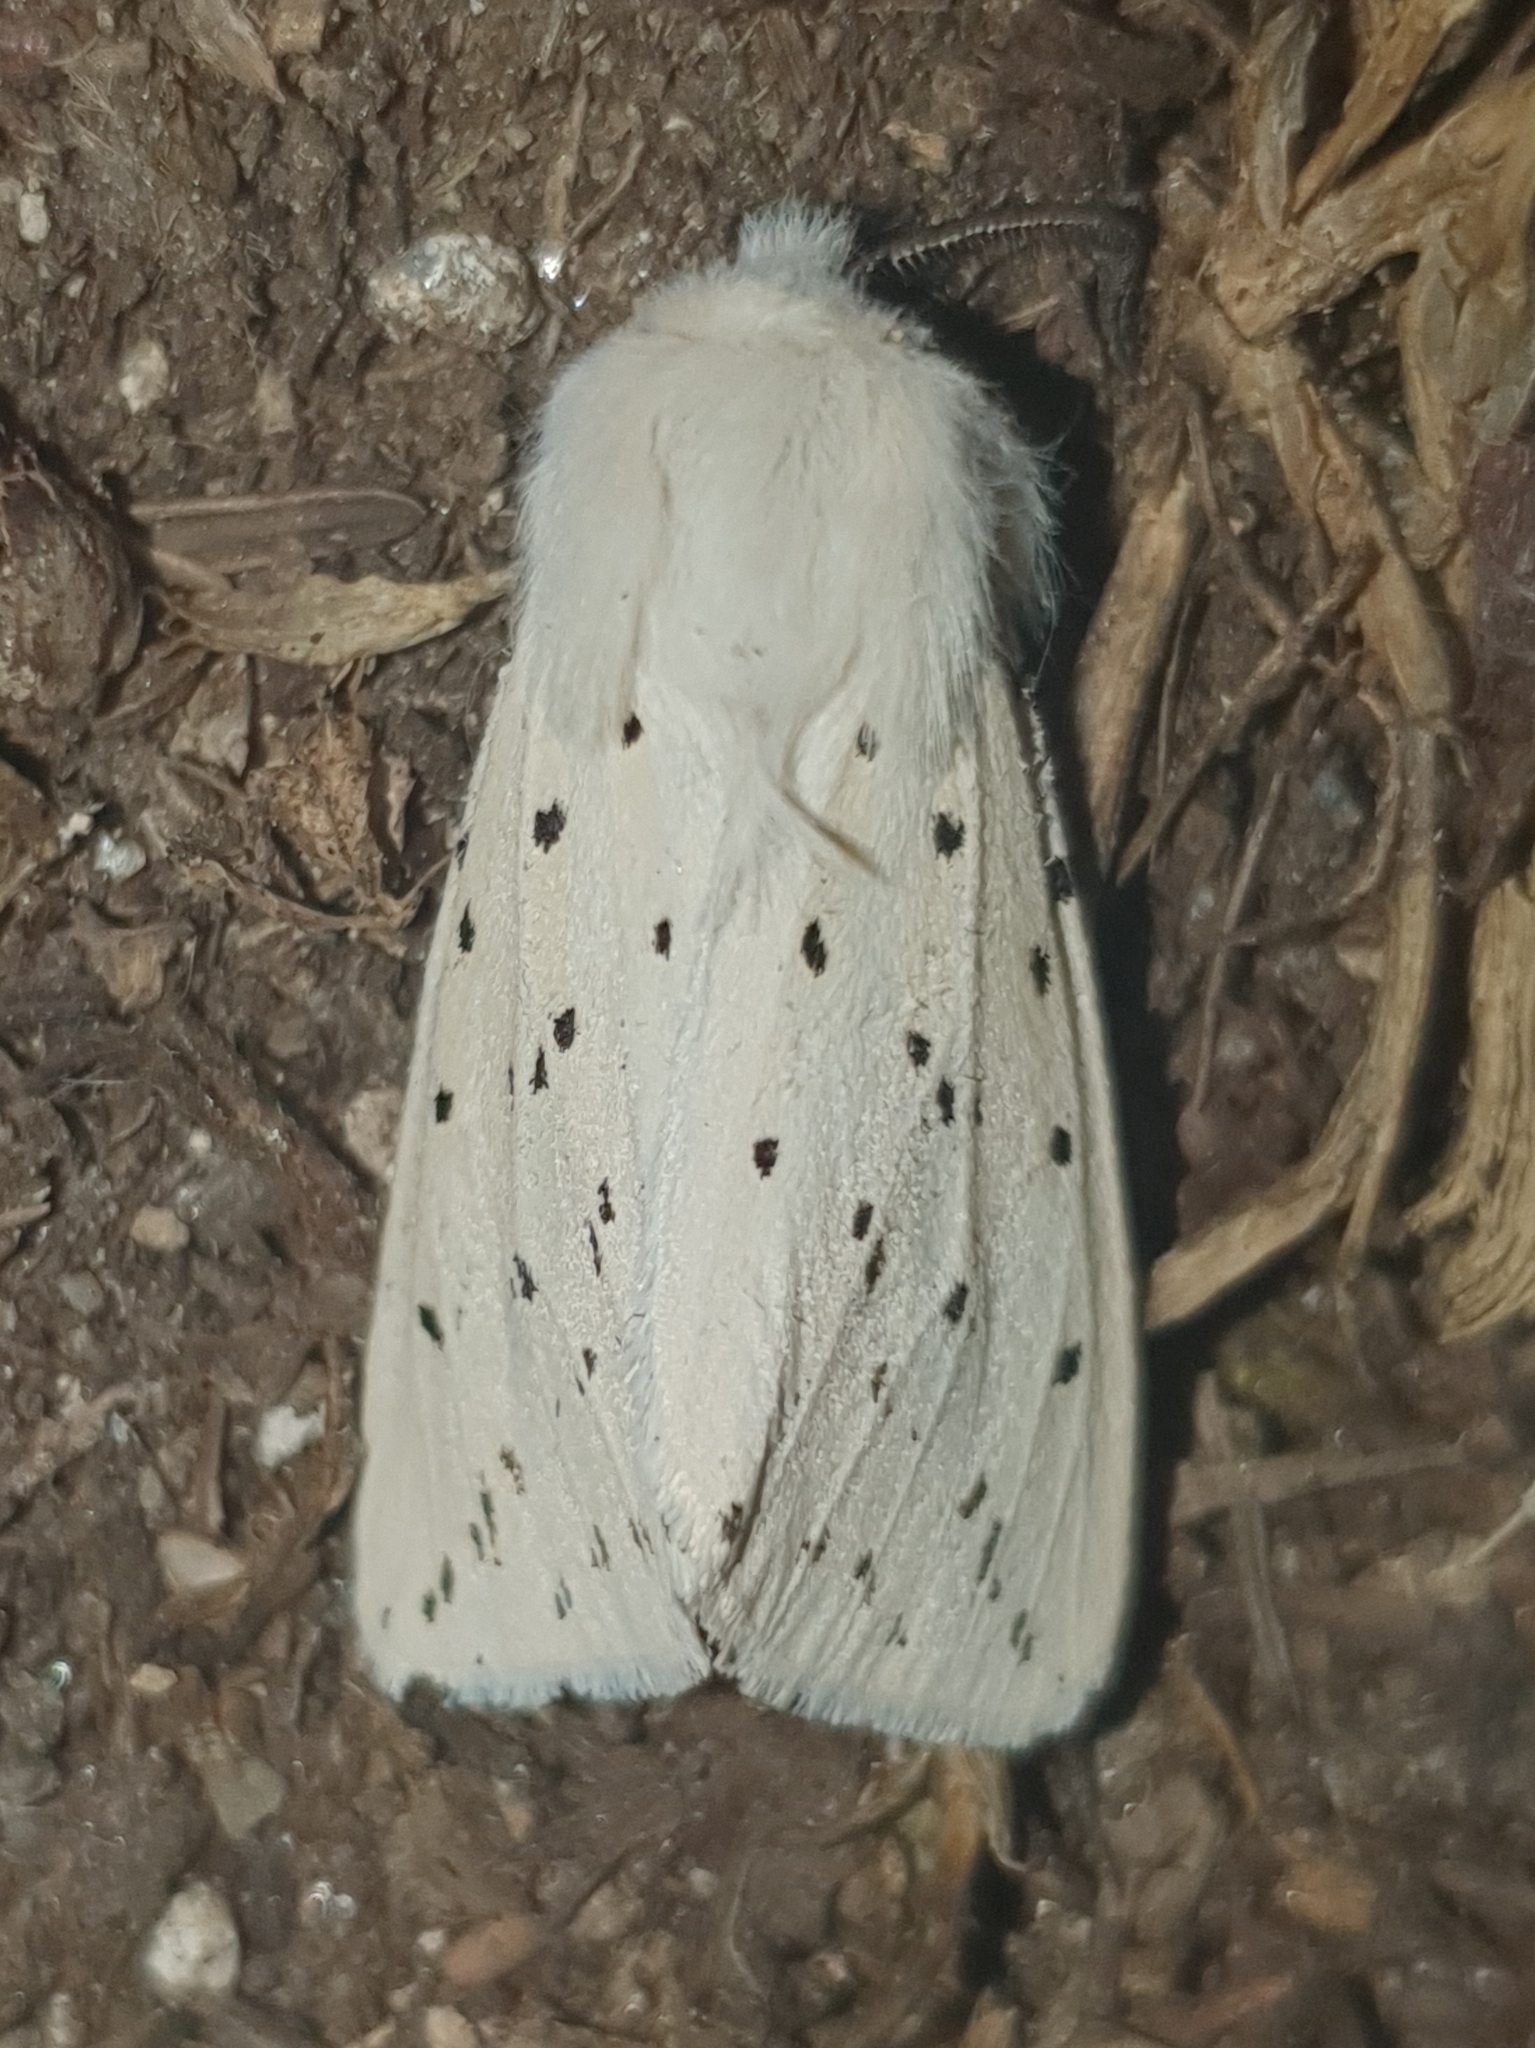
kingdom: Animalia
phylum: Arthropoda
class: Insecta
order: Lepidoptera
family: Erebidae
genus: Spilosoma
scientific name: Spilosoma lubricipeda
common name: White ermine
